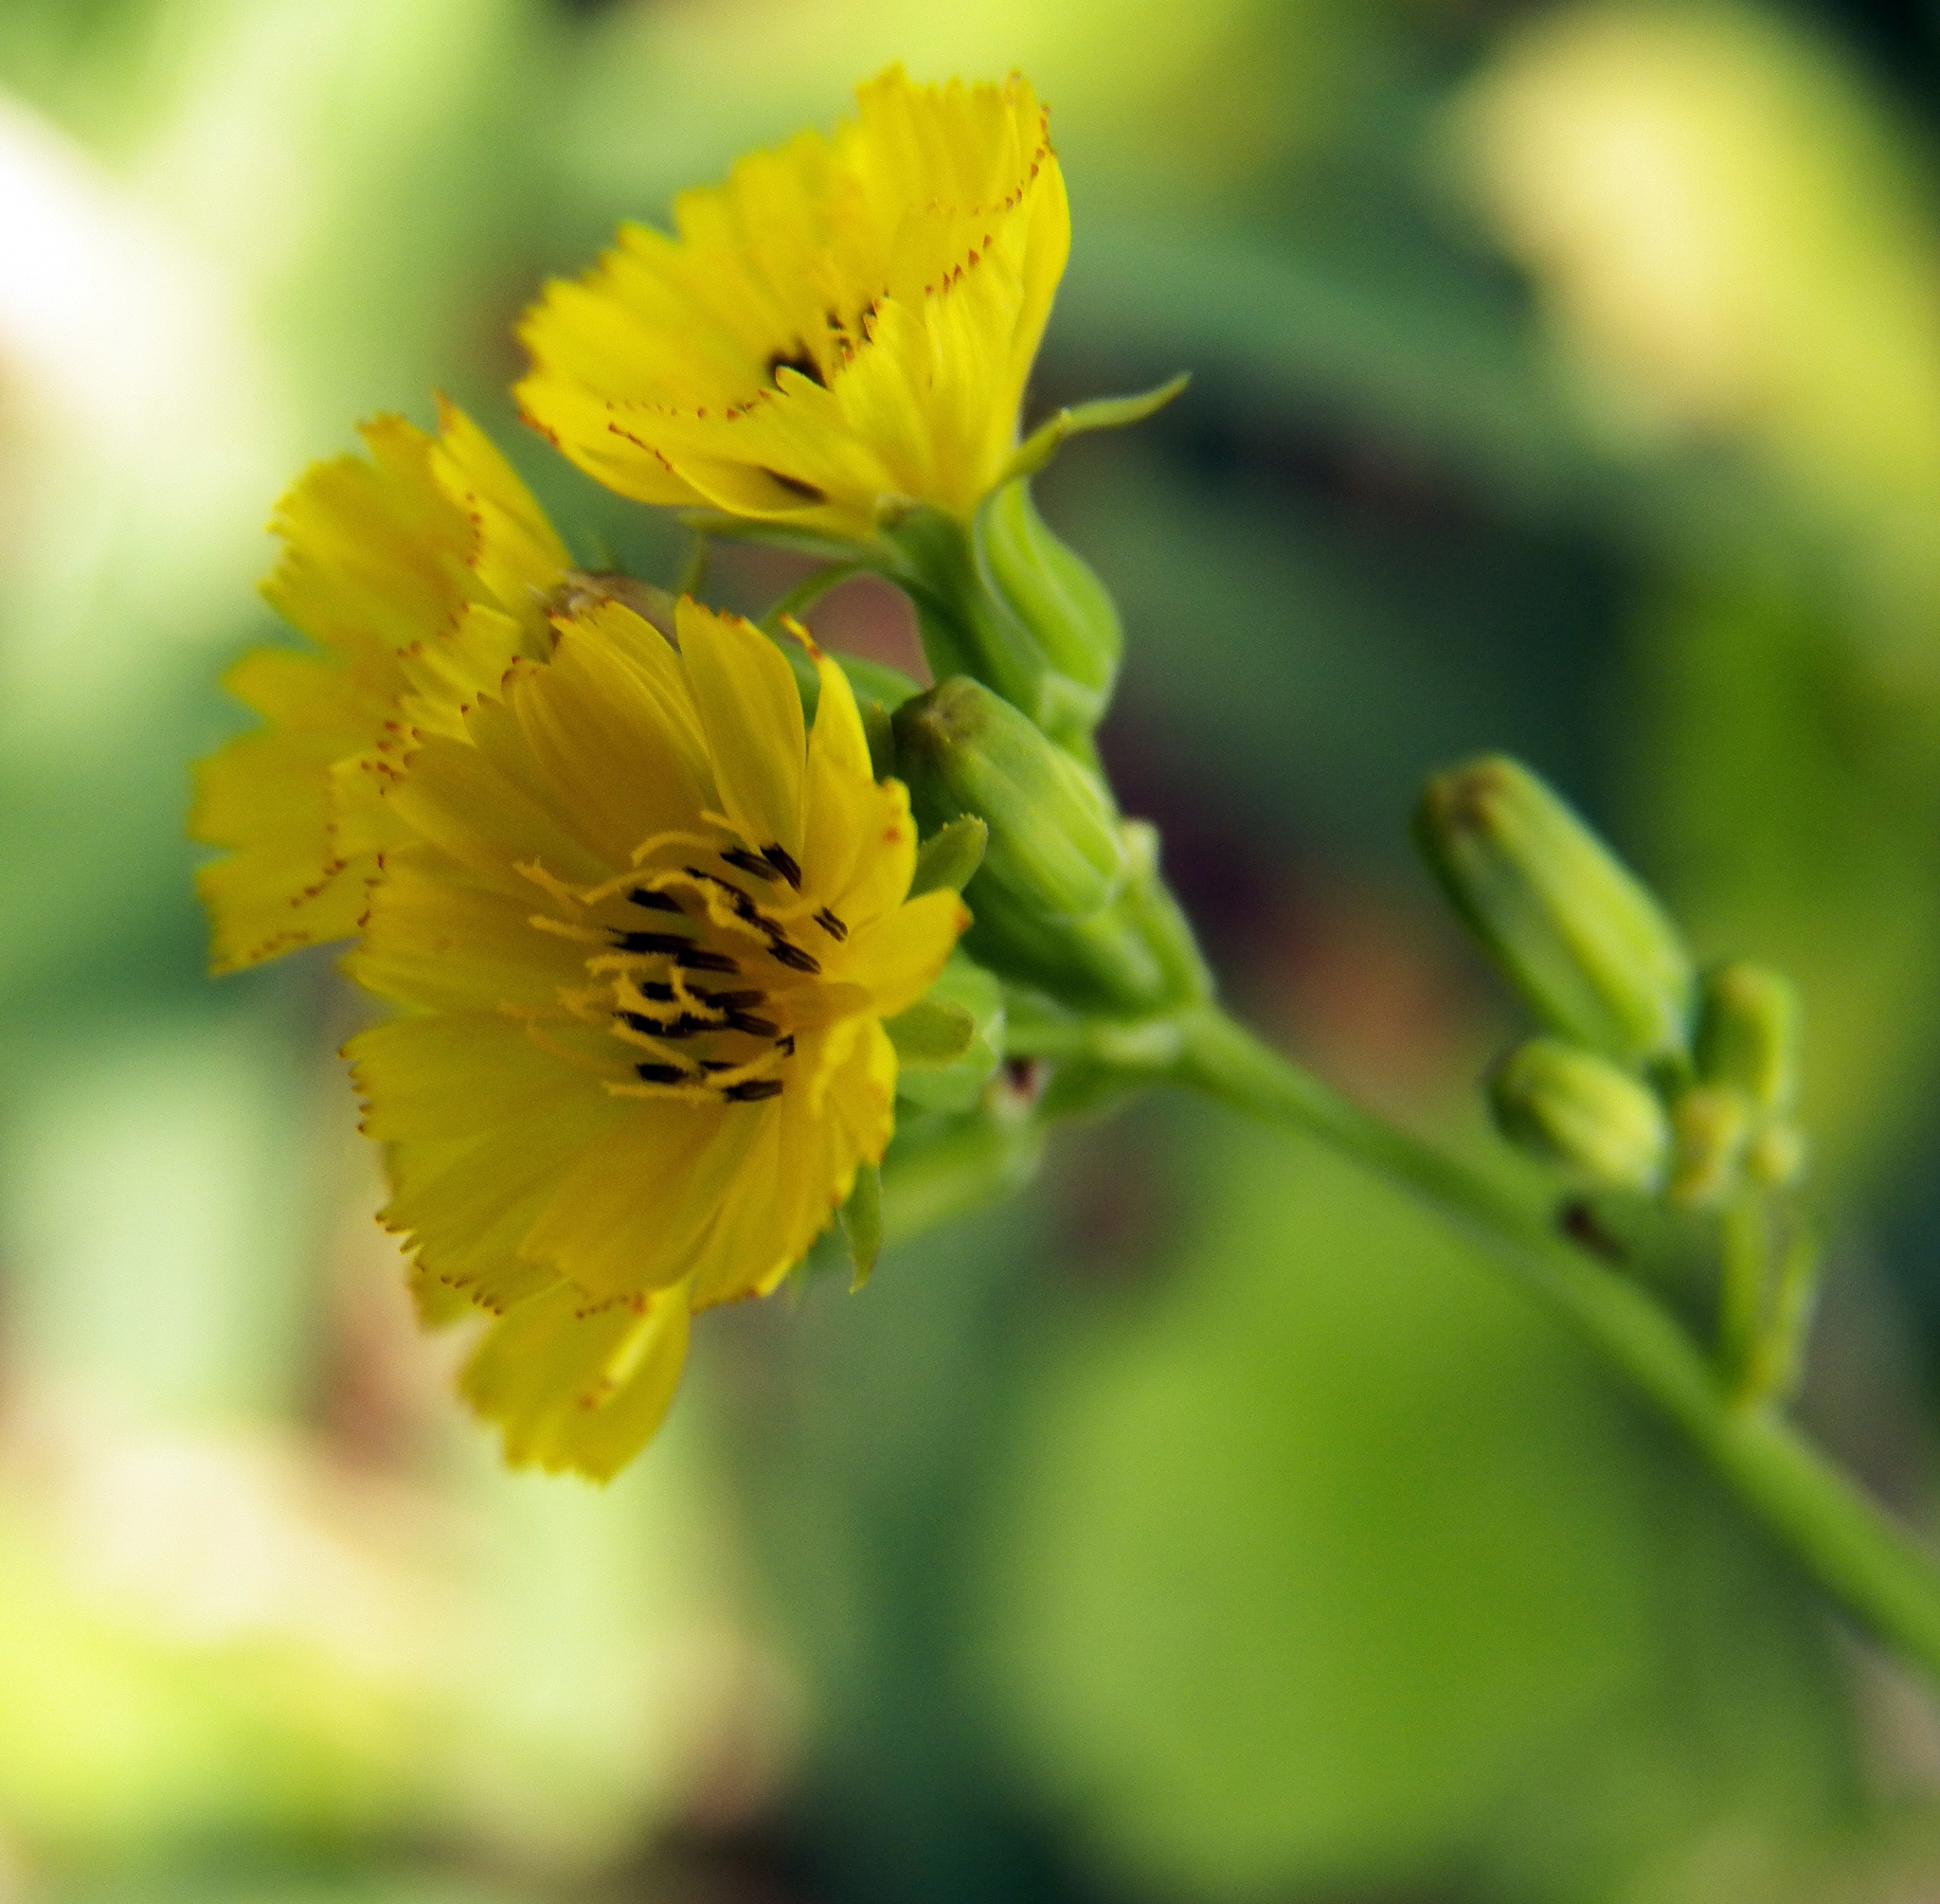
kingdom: Plantae
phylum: Tracheophyta
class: Magnoliopsida
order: Asterales
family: Asteraceae
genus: Youngia
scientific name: Youngia japonica
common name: Oriental false hawksbeard
